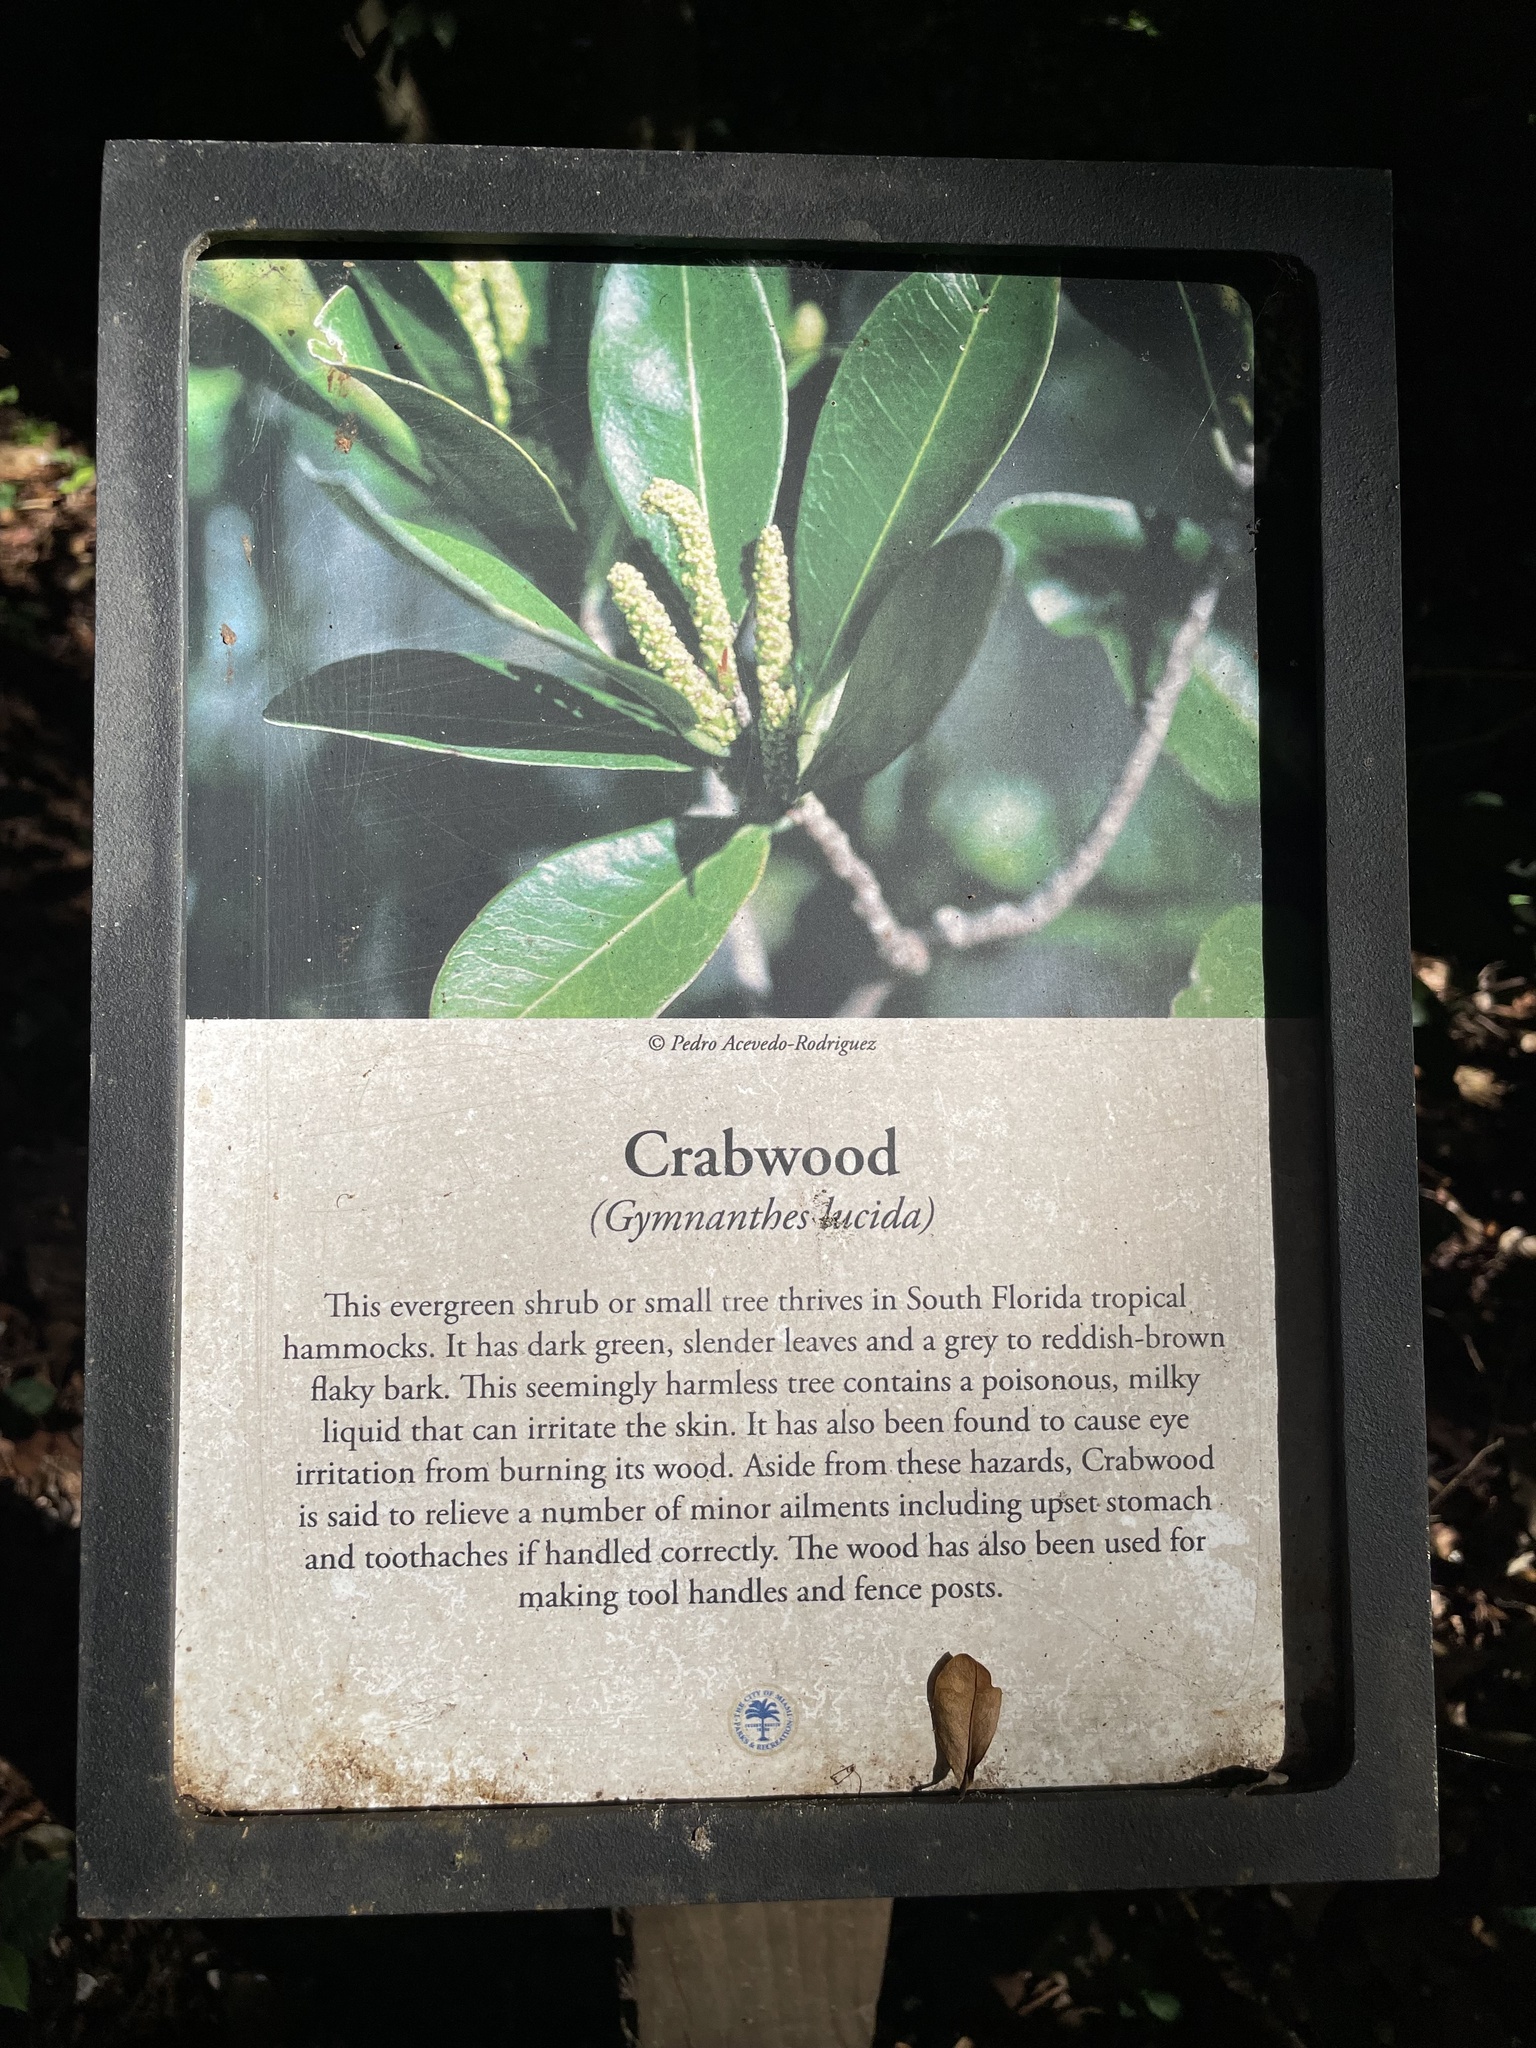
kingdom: Plantae
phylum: Tracheophyta
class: Magnoliopsida
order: Malpighiales
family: Euphorbiaceae
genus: Gymnanthes
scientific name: Gymnanthes lucida
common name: Oysterwood
